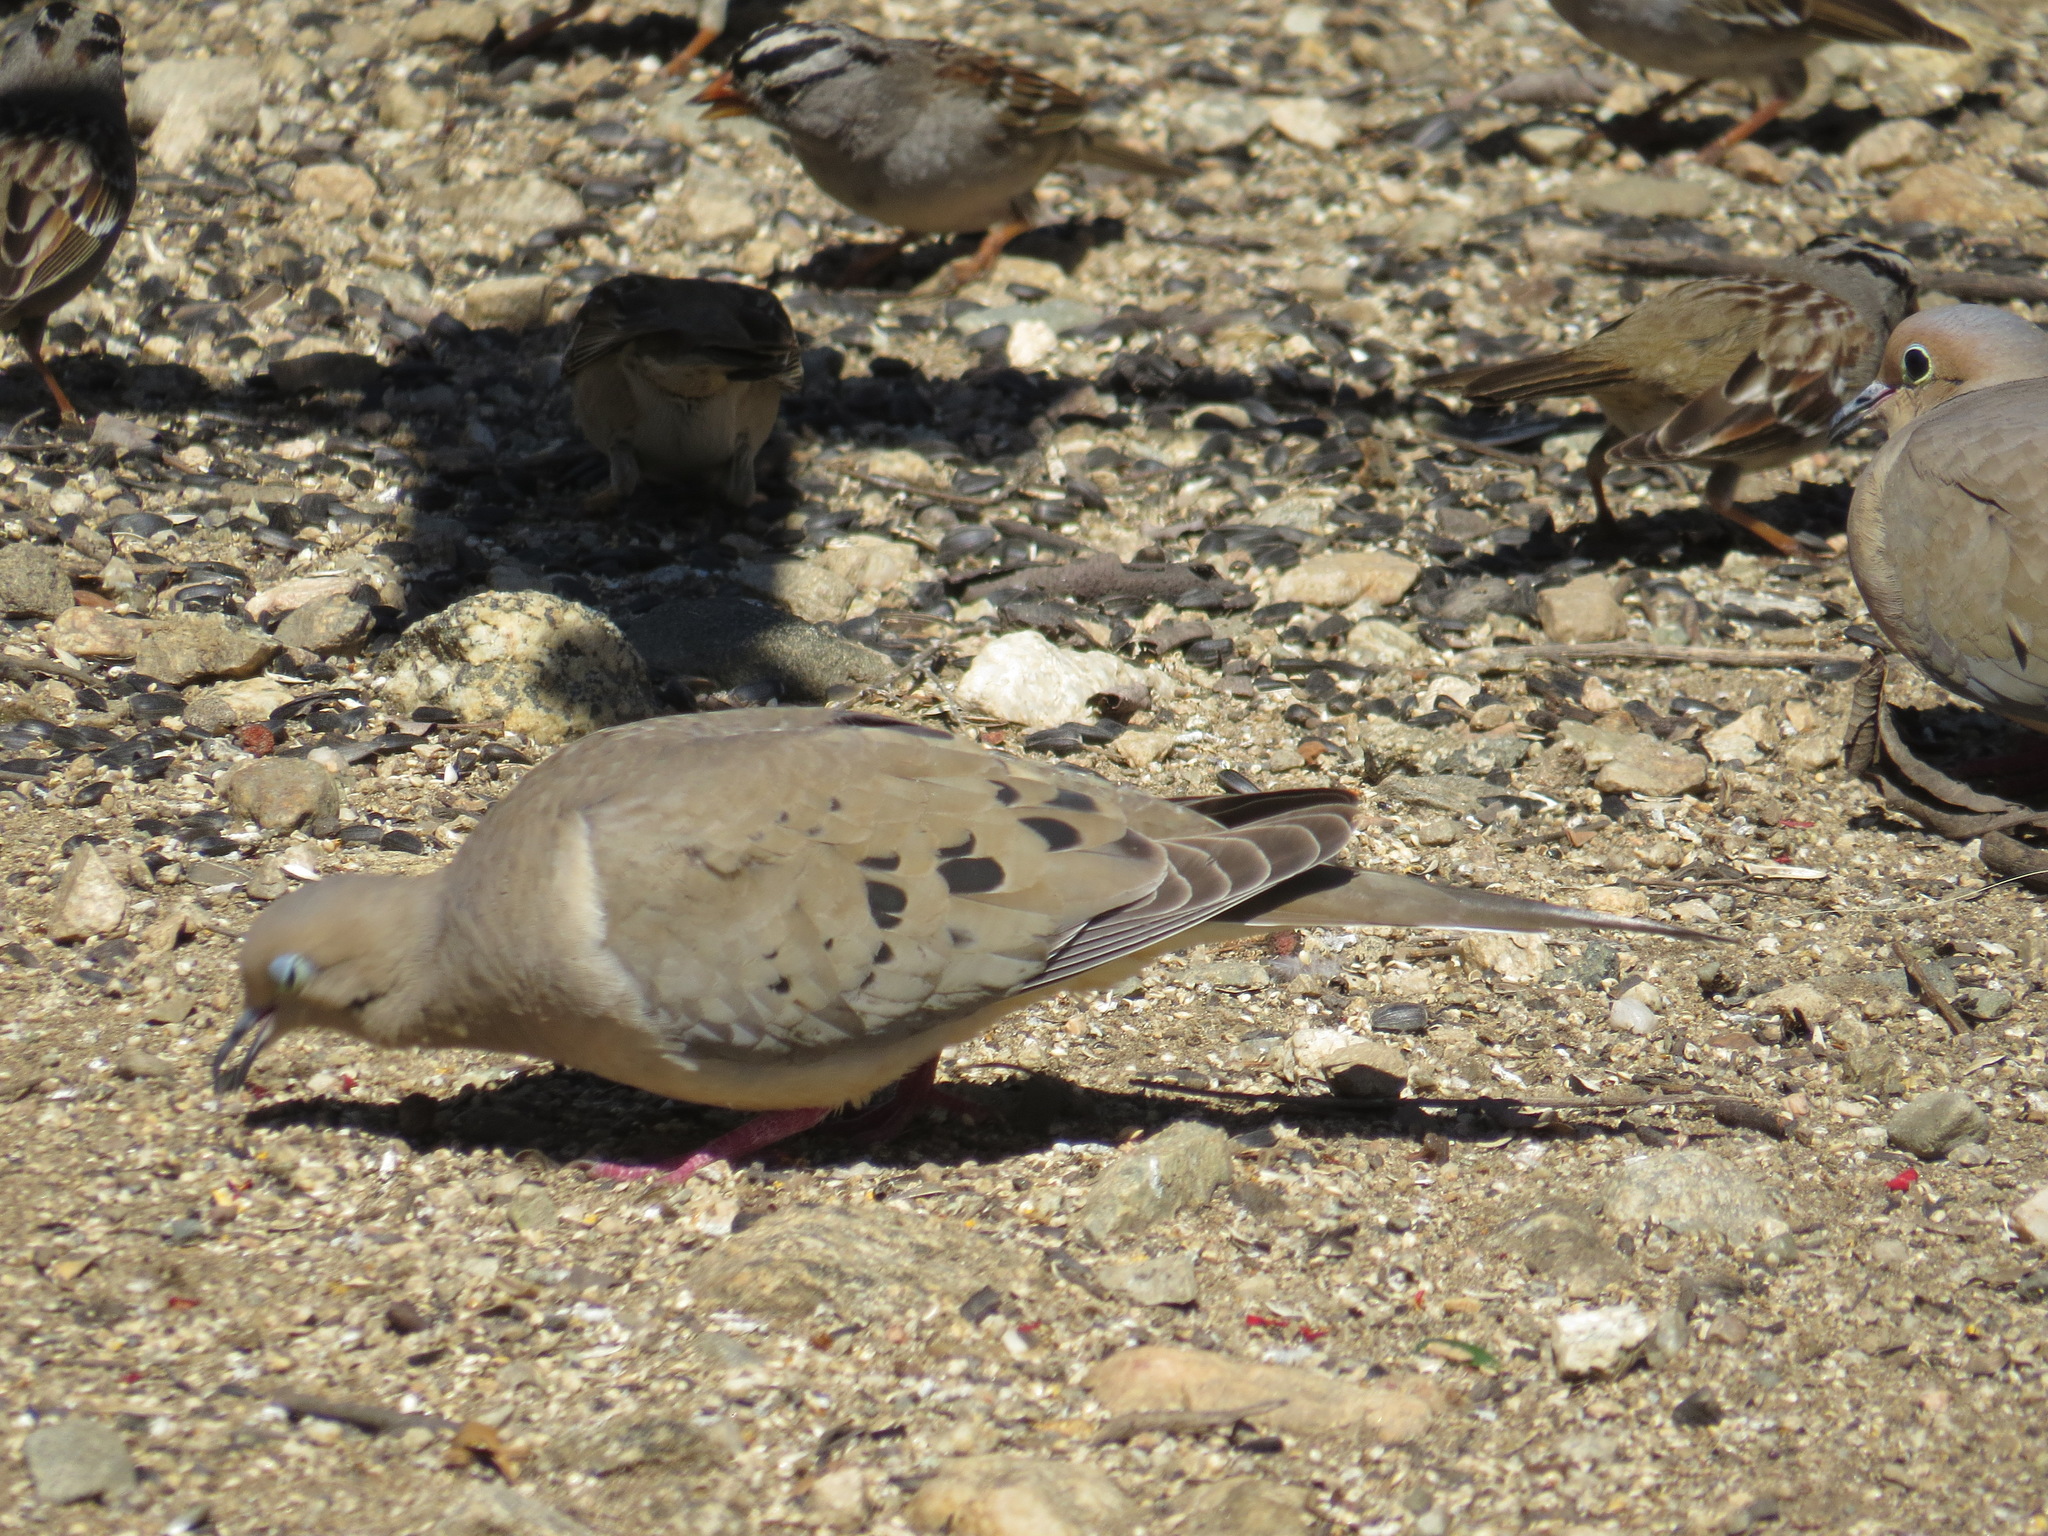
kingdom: Animalia
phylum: Chordata
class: Aves
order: Columbiformes
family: Columbidae
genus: Zenaida
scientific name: Zenaida macroura
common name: Mourning dove
